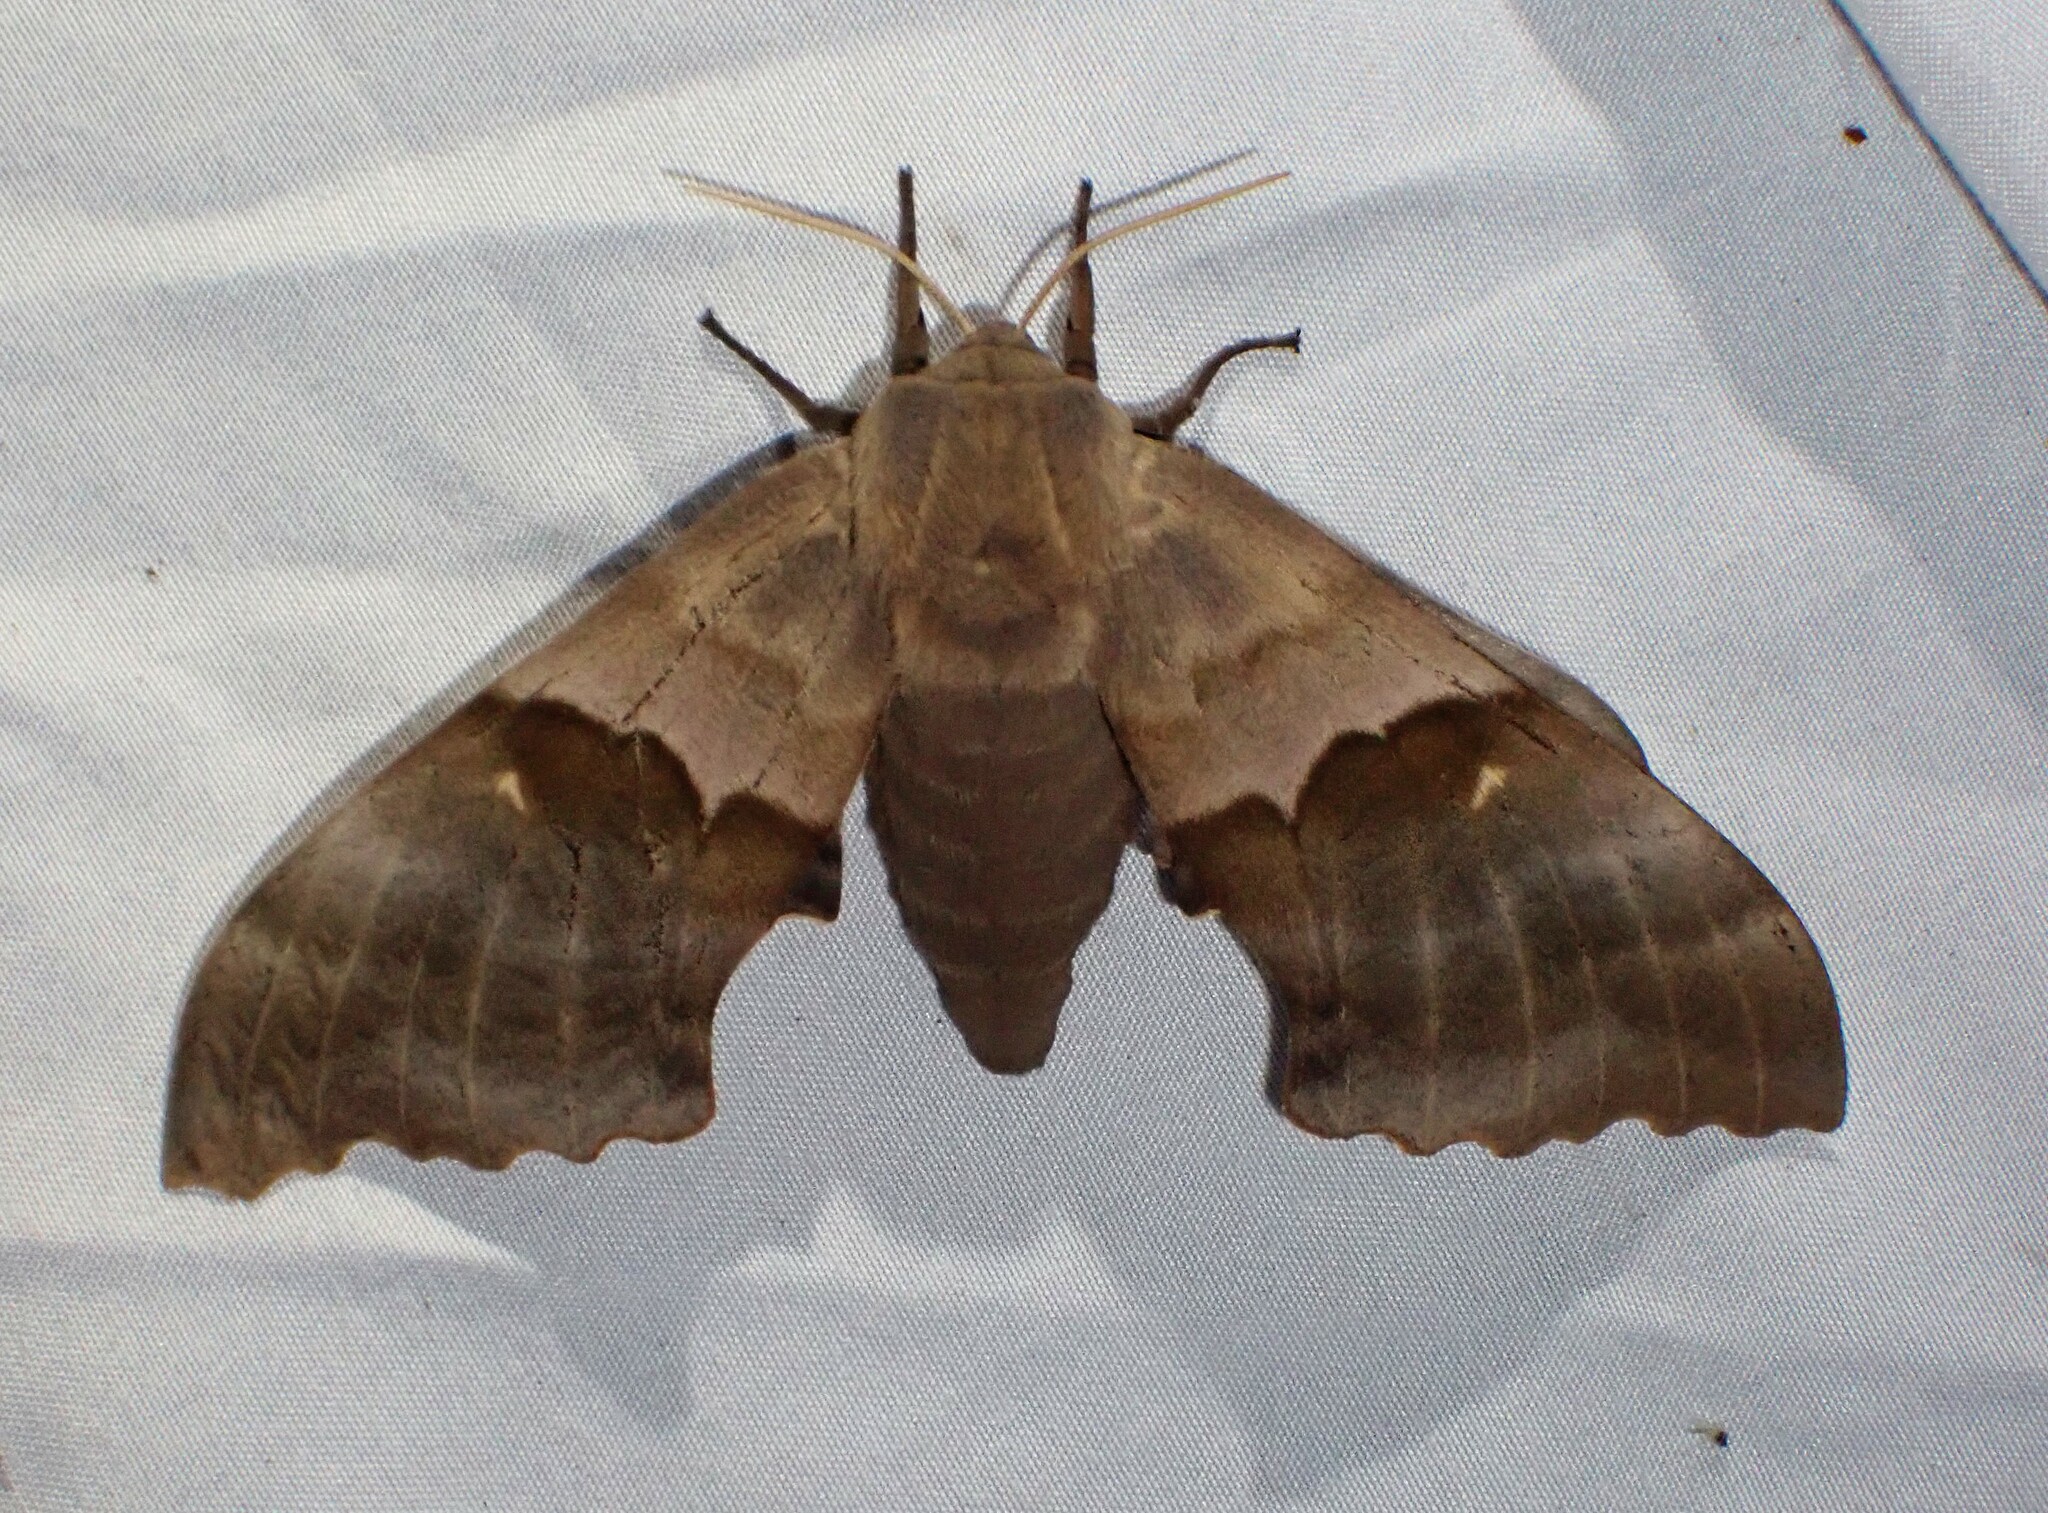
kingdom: Animalia
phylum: Arthropoda
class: Insecta
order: Lepidoptera
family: Sphingidae
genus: Pachysphinx
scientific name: Pachysphinx modesta
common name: Big poplar sphinx
